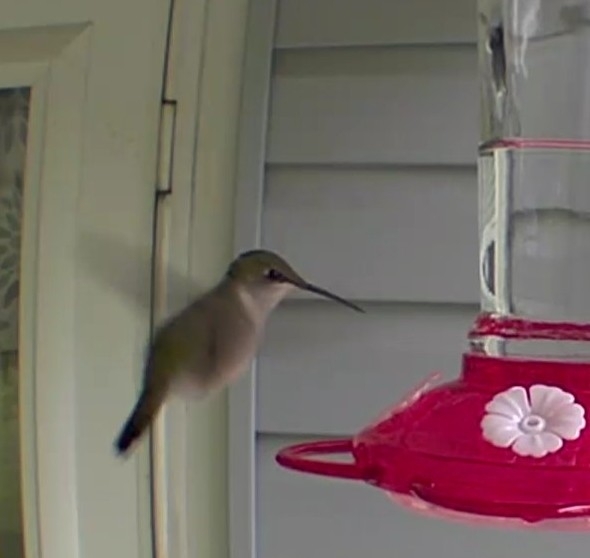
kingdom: Animalia
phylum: Chordata
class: Aves
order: Apodiformes
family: Trochilidae
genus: Archilochus
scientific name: Archilochus colubris
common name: Ruby-throated hummingbird
